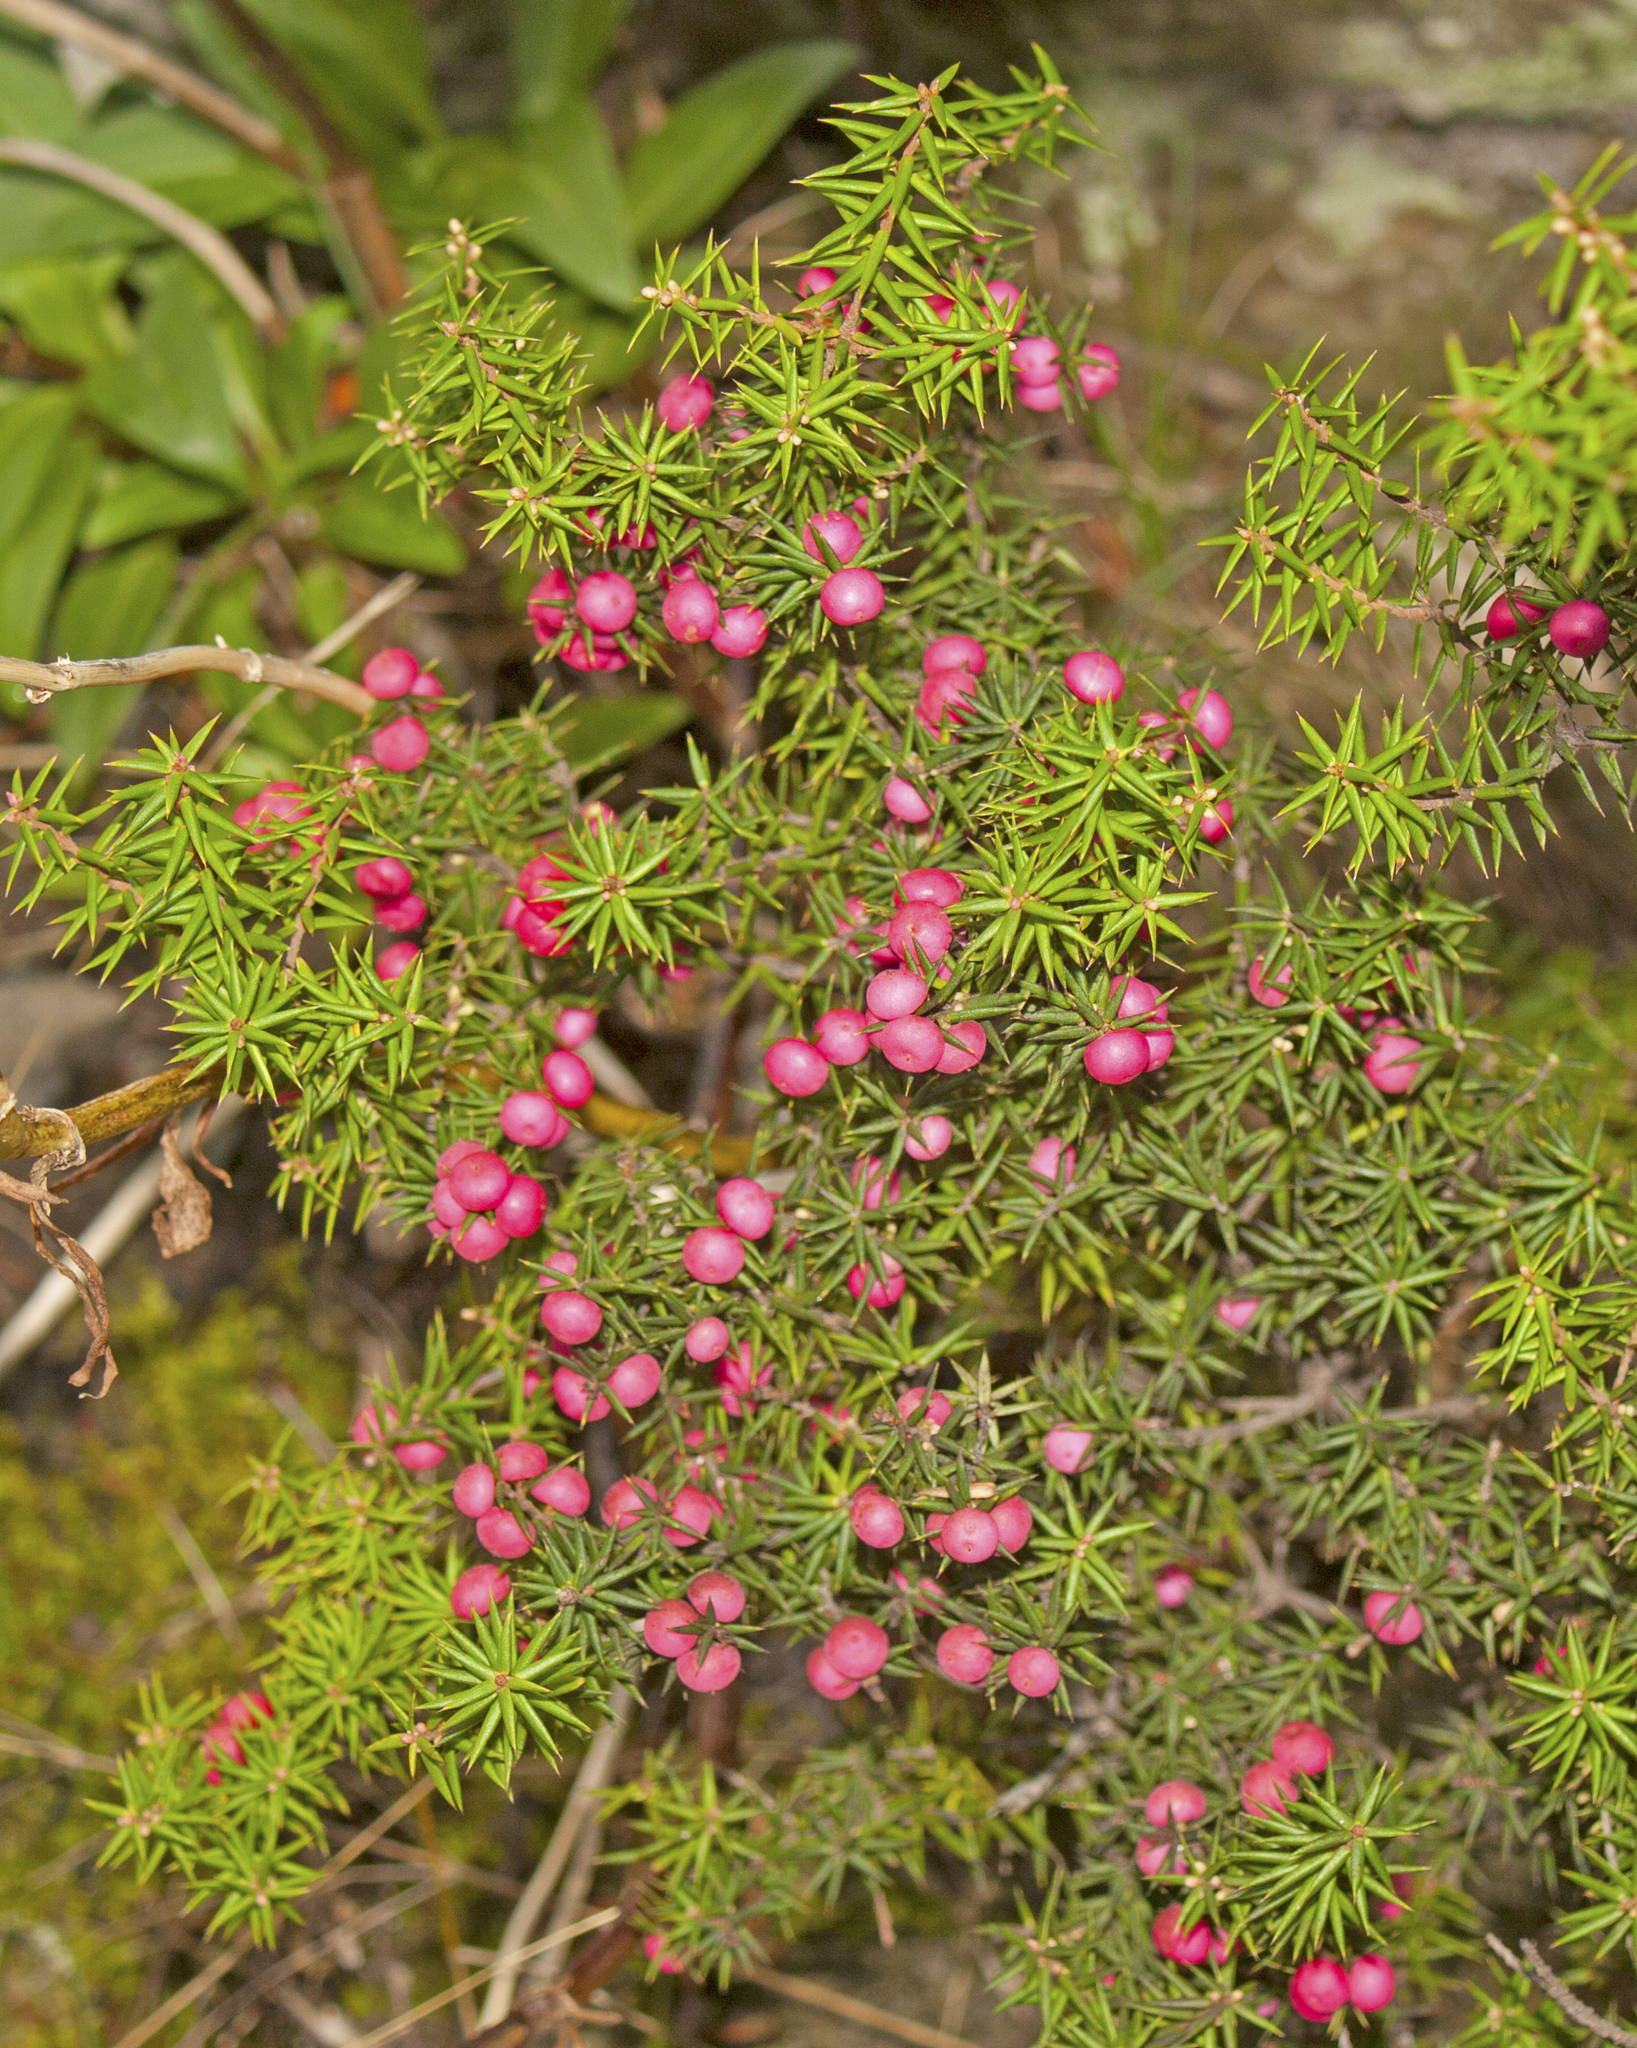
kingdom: Plantae
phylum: Tracheophyta
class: Magnoliopsida
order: Ericales
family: Ericaceae
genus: Leptecophylla
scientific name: Leptecophylla oxycedrus
